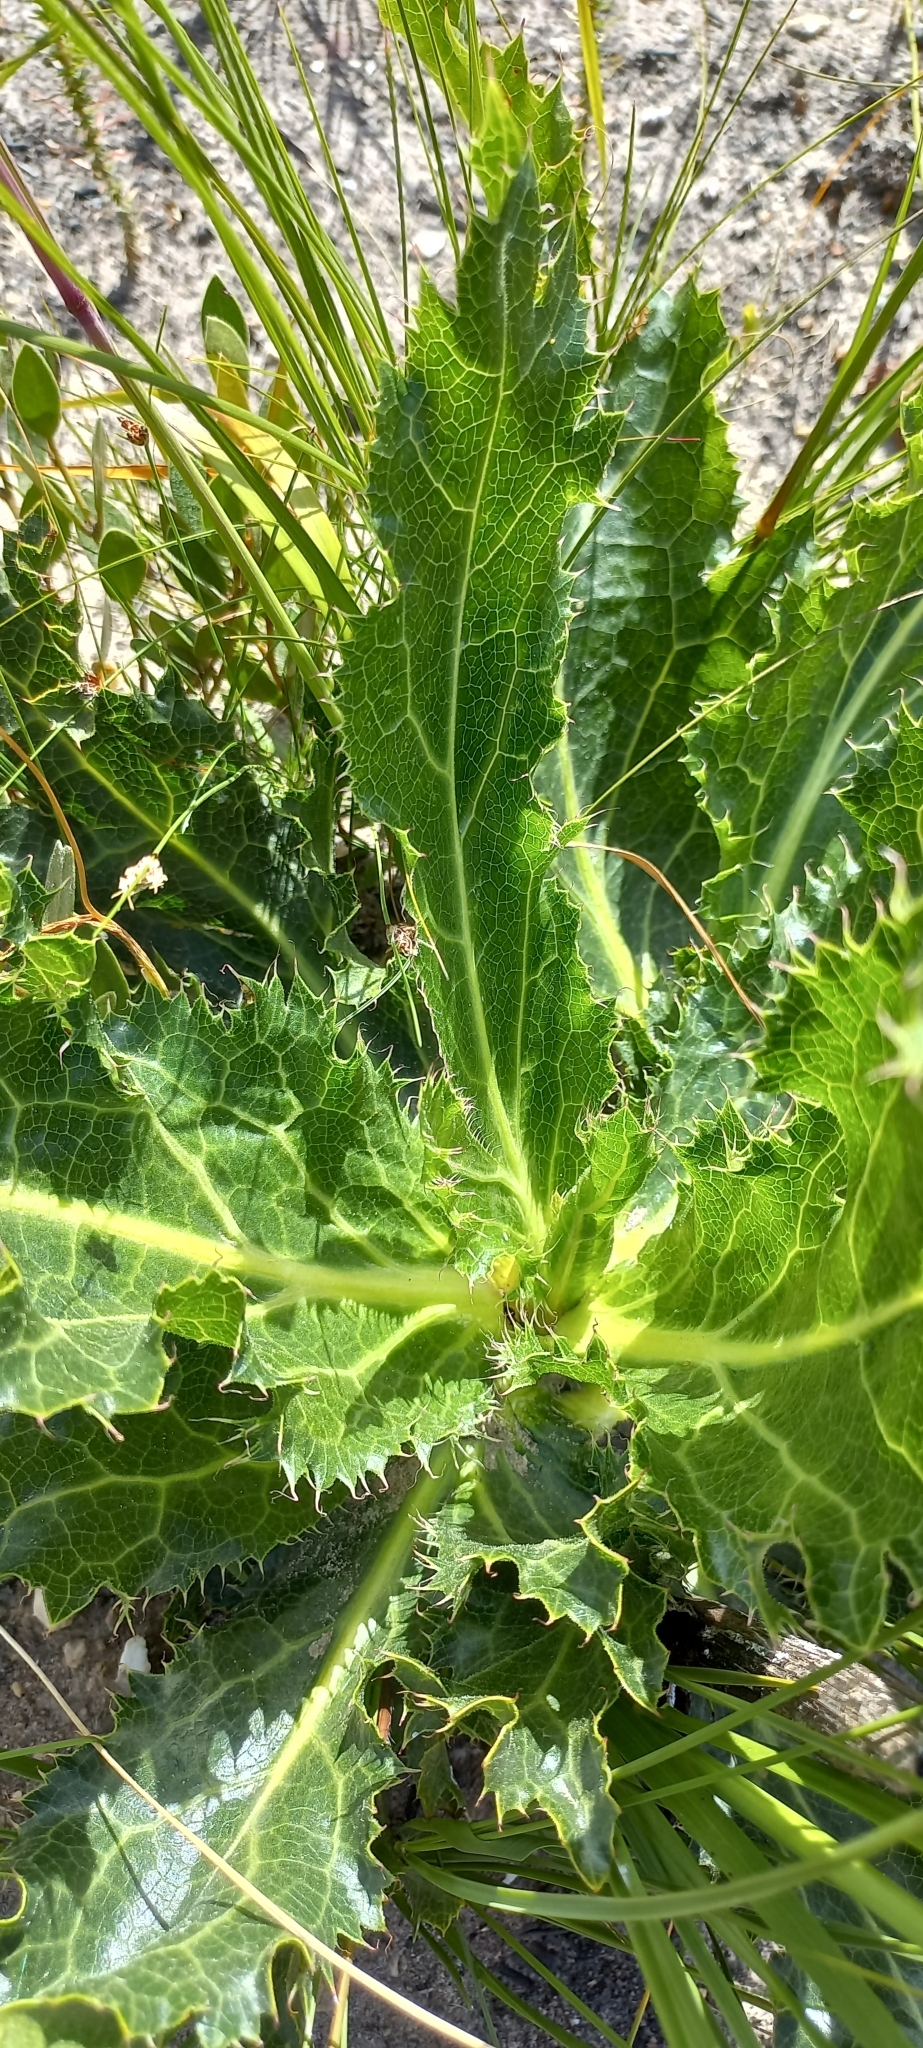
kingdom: Plantae
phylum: Tracheophyta
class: Magnoliopsida
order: Apiales
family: Apiaceae
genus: Lichtensteinia
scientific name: Lichtensteinia lacera
